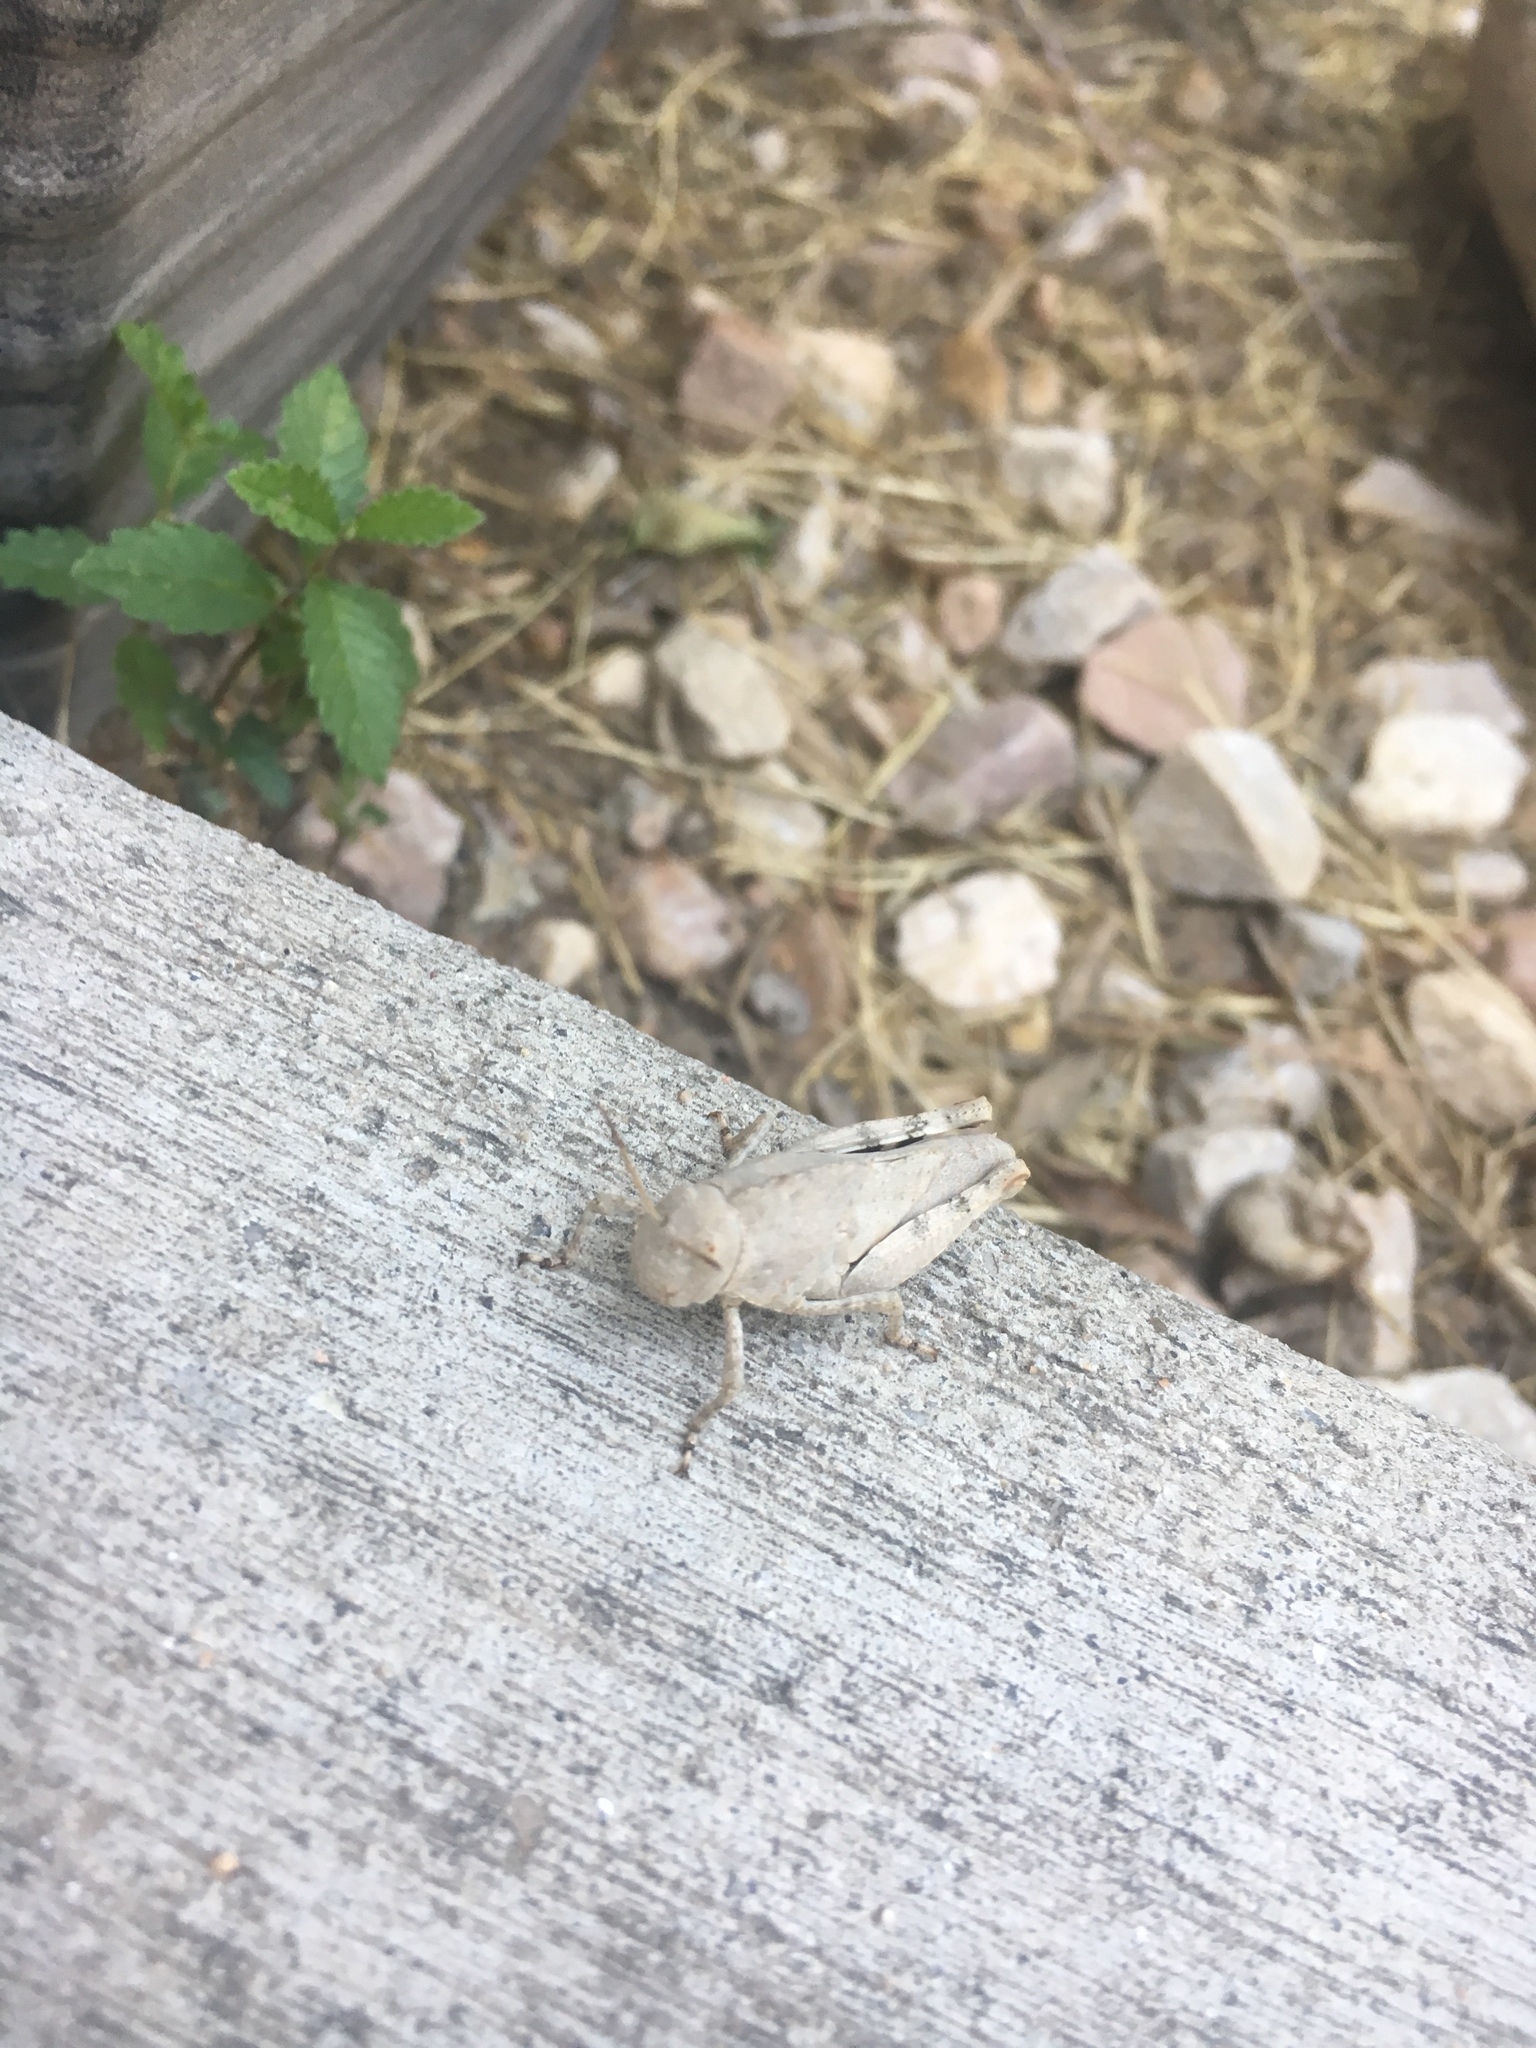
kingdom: Animalia
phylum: Arthropoda
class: Insecta
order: Orthoptera
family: Acrididae
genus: Dissosteira
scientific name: Dissosteira carolina
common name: Carolina grasshopper
